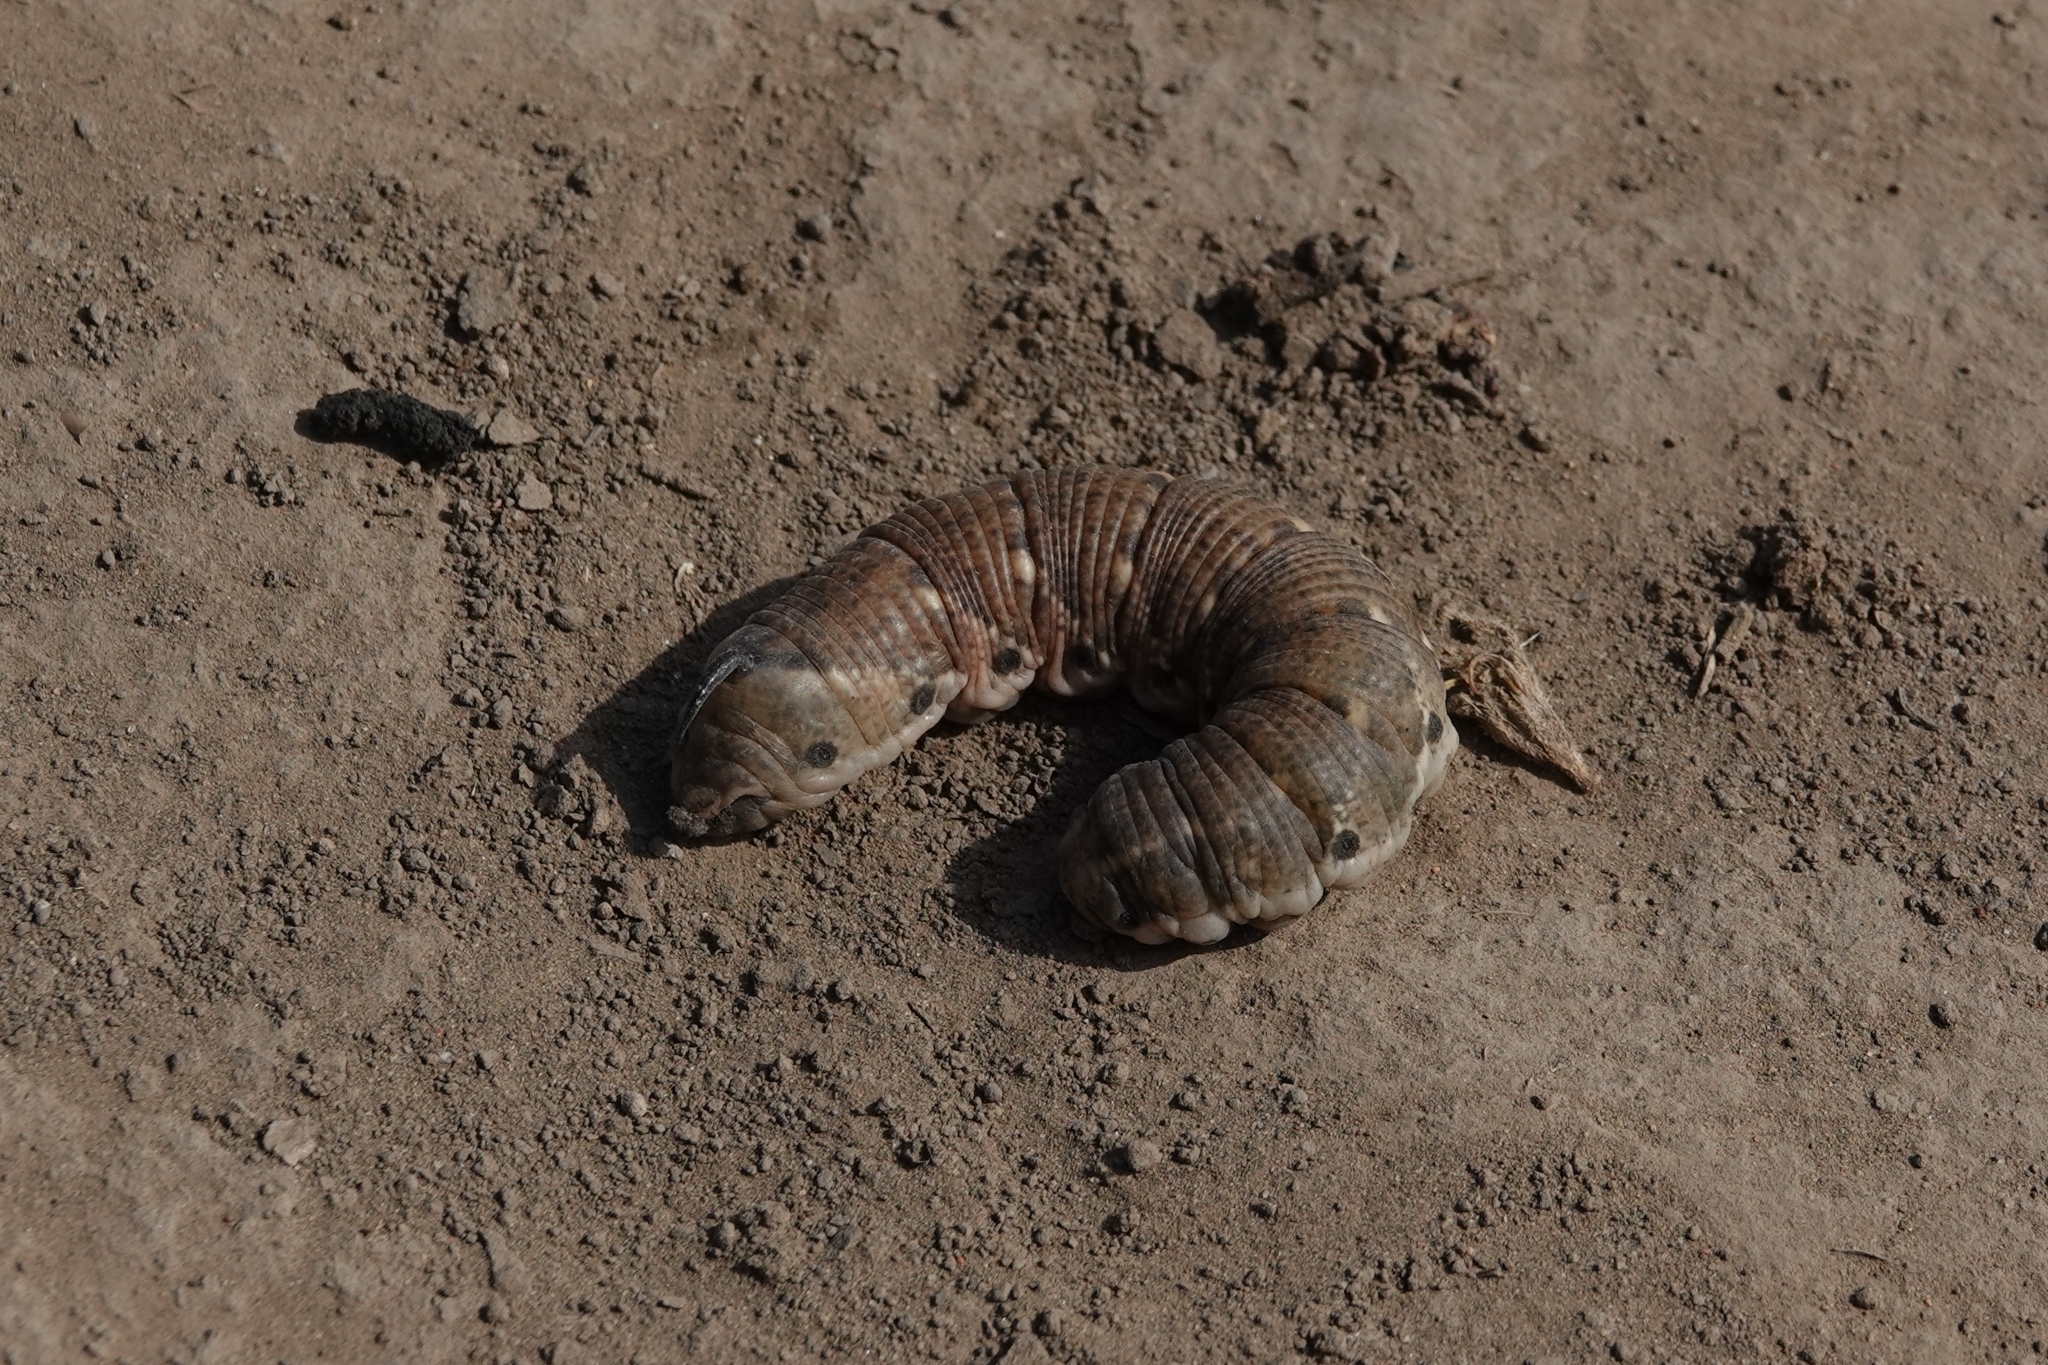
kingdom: Animalia
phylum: Arthropoda
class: Insecta
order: Lepidoptera
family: Sphingidae
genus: Agrius
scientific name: Agrius convolvuli
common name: Convolvulus hawkmoth
